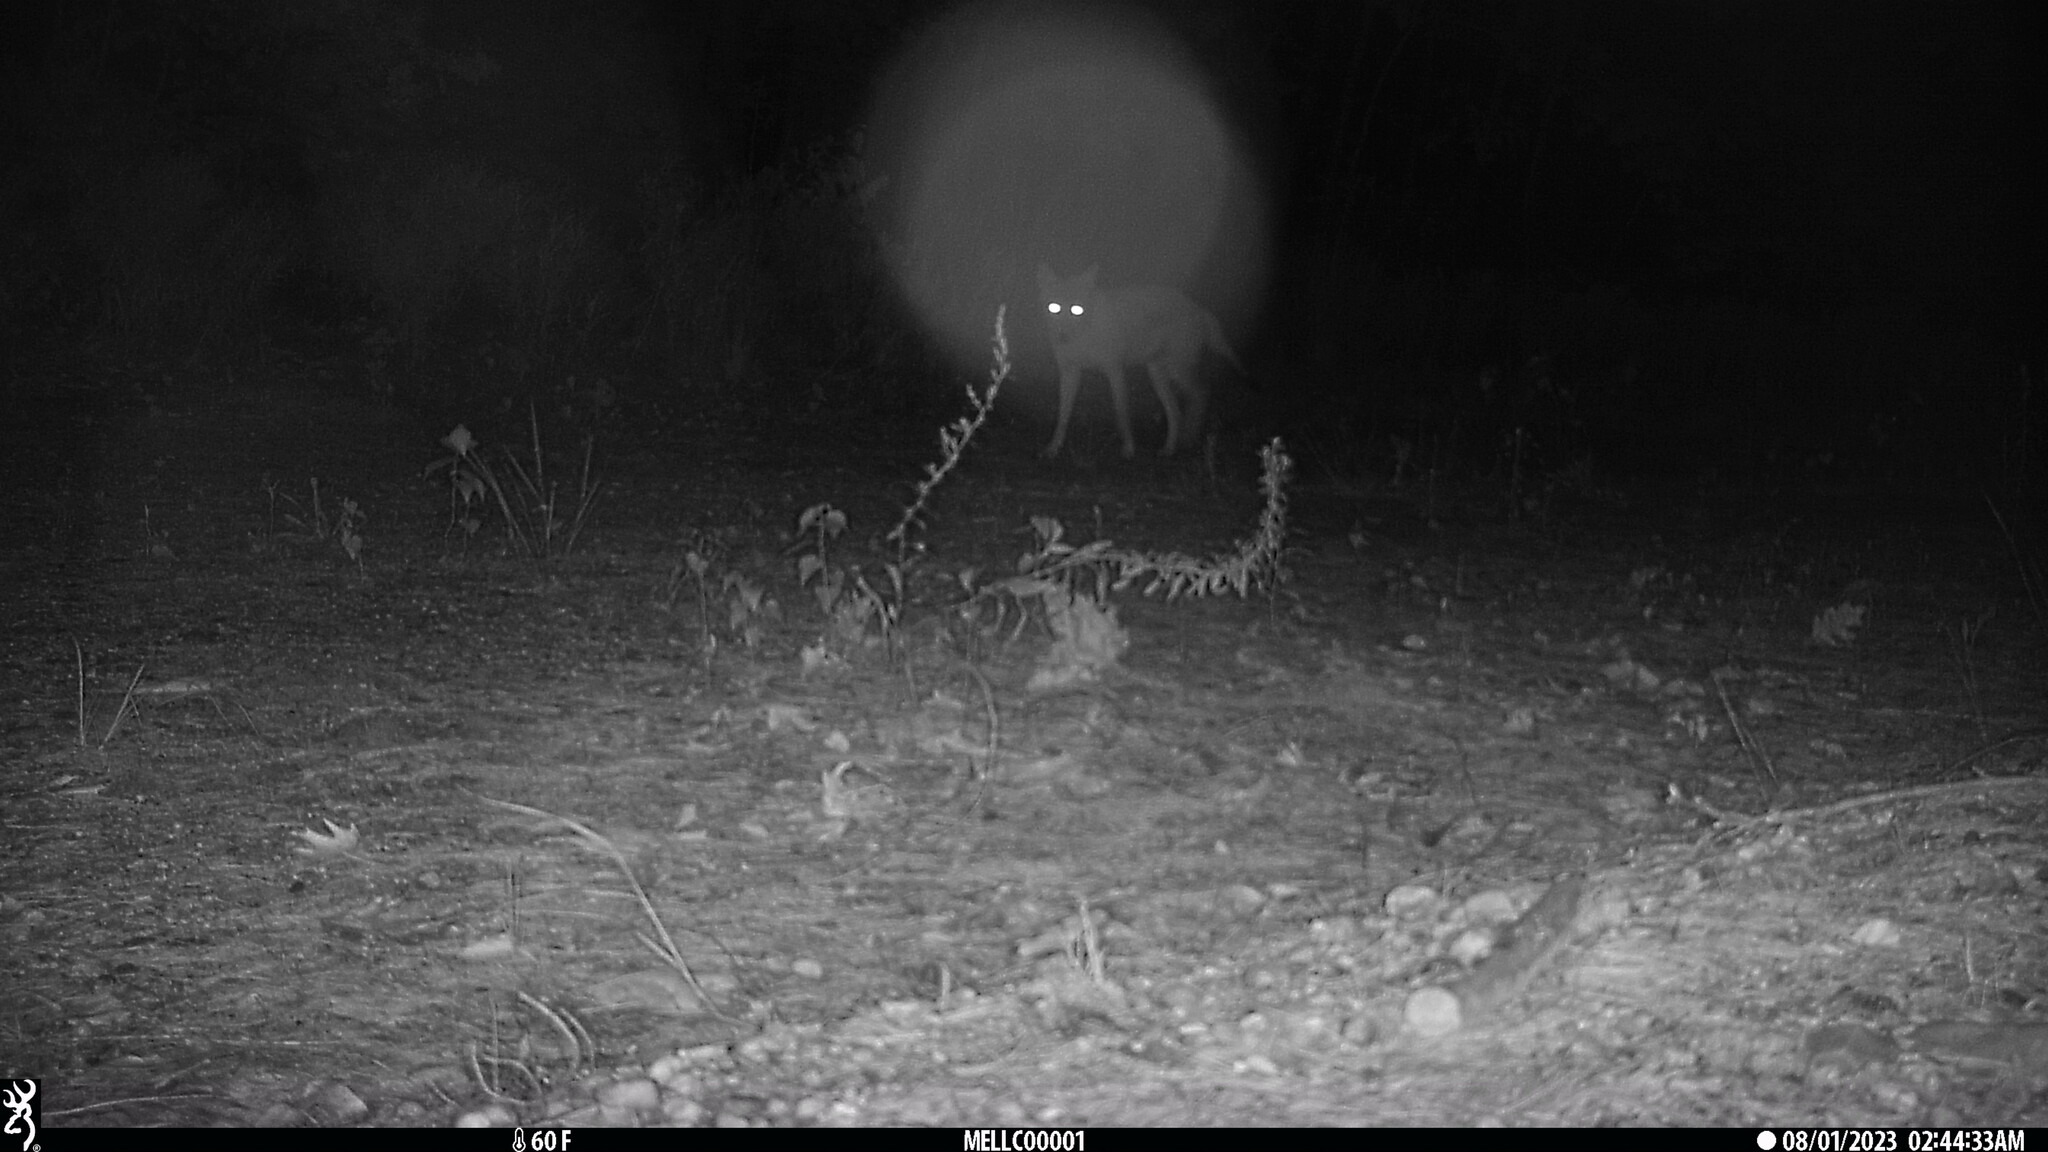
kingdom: Animalia
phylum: Chordata
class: Mammalia
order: Carnivora
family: Canidae
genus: Canis
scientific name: Canis latrans
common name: Coyote
